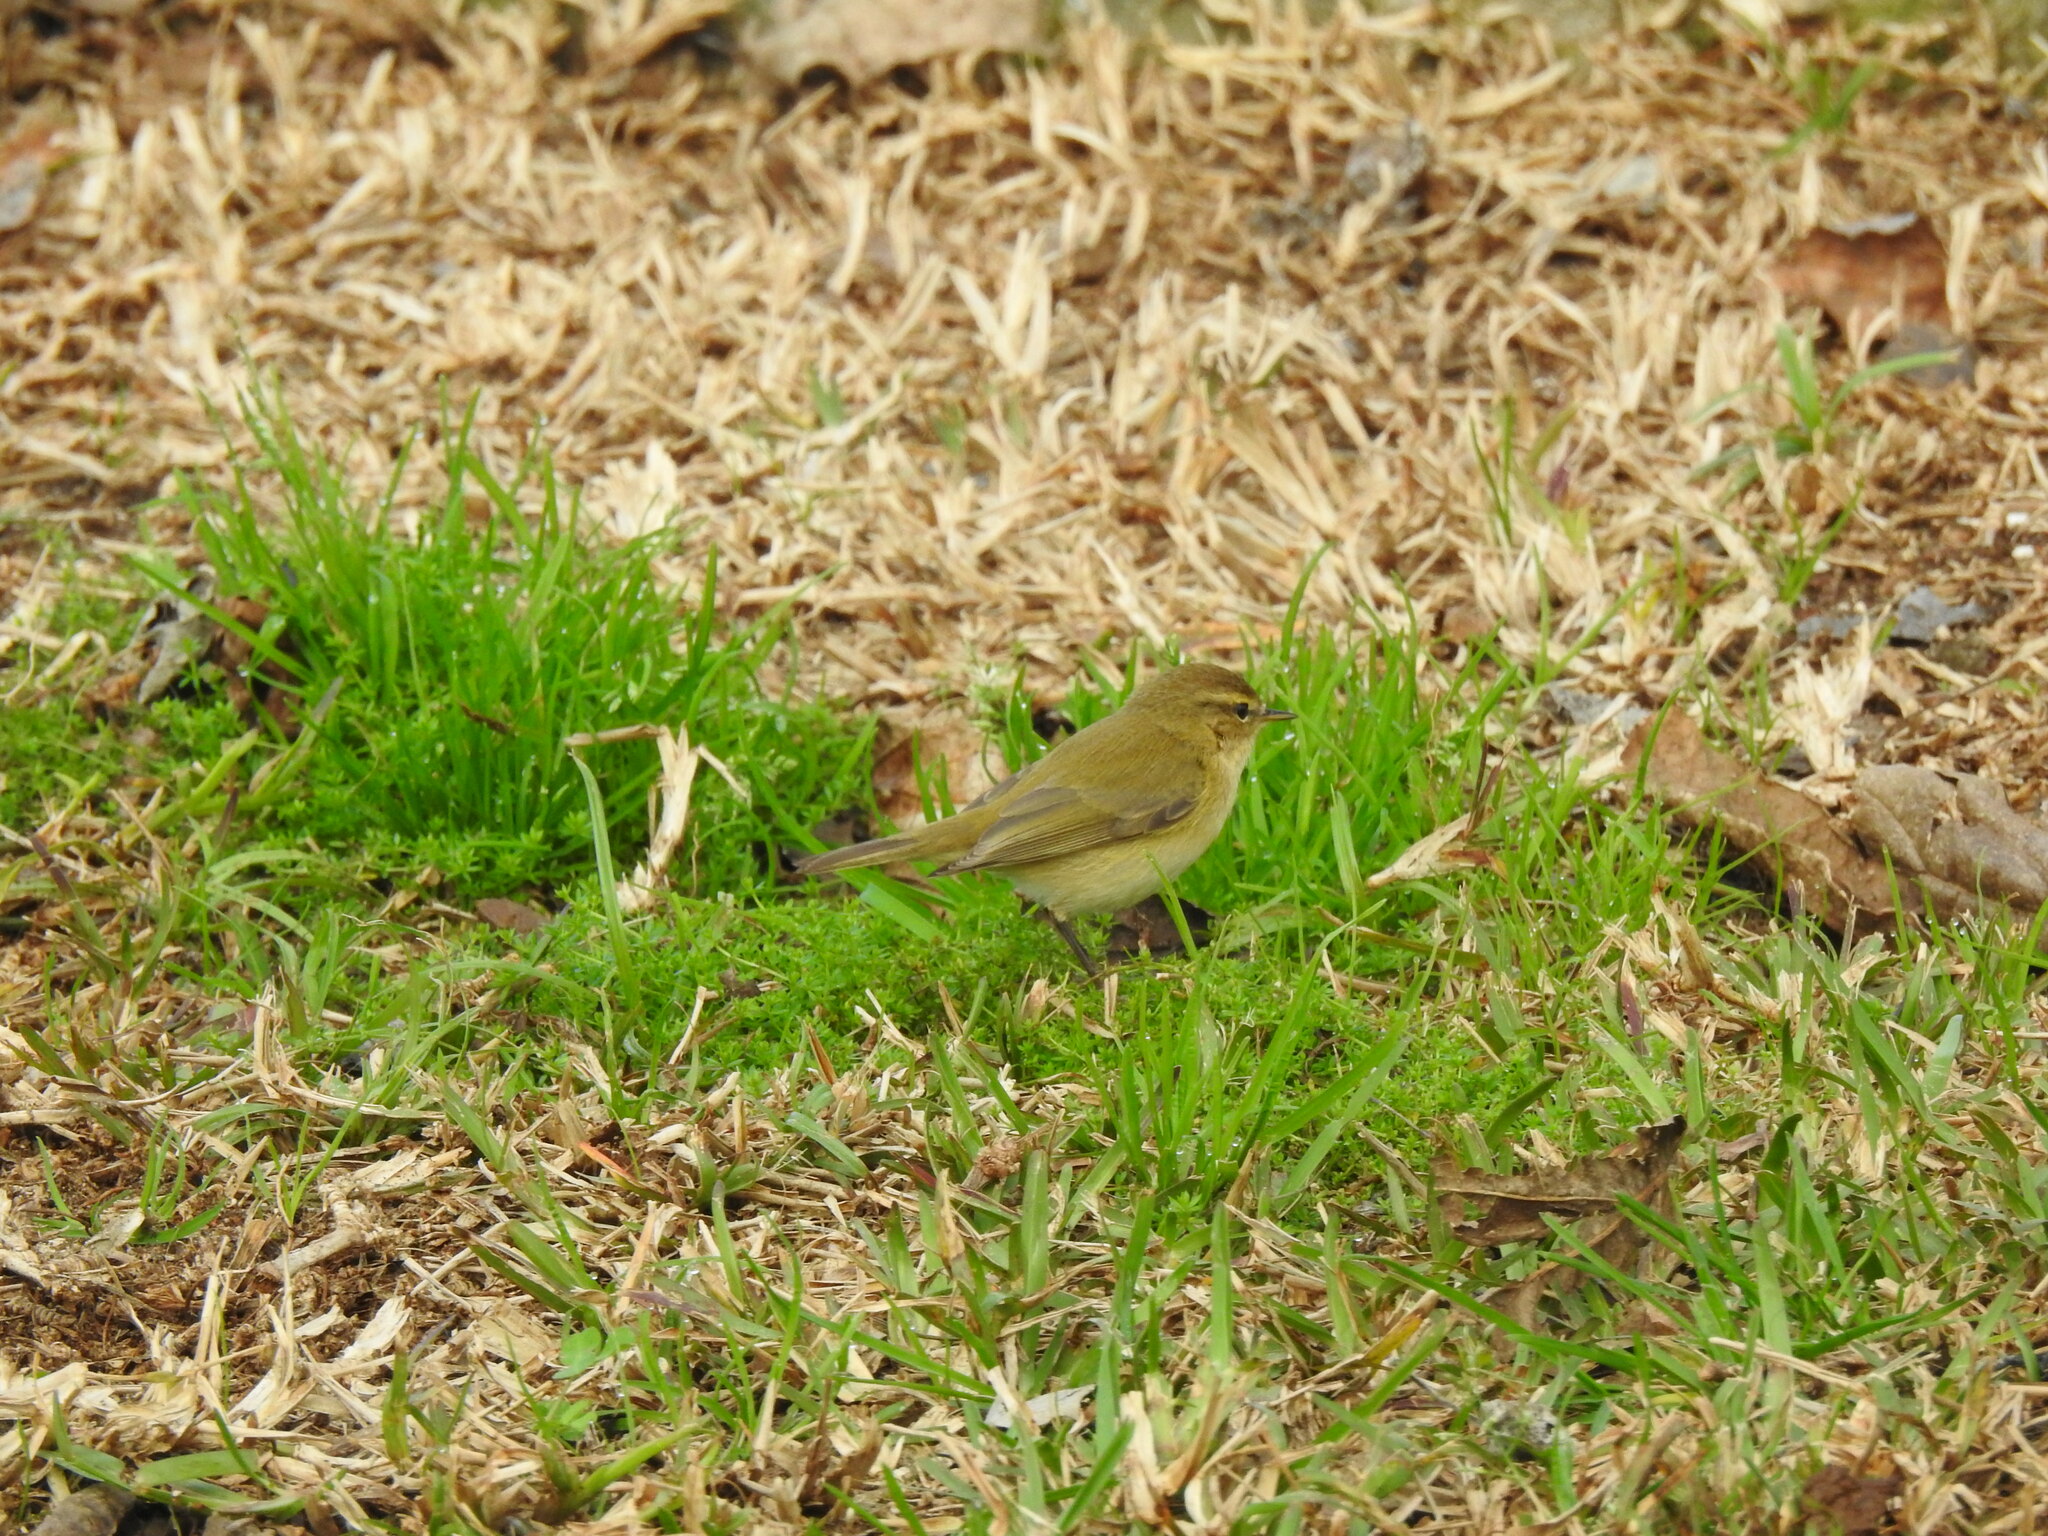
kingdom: Animalia
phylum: Chordata
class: Aves
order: Passeriformes
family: Phylloscopidae
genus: Phylloscopus
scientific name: Phylloscopus collybita
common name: Common chiffchaff
